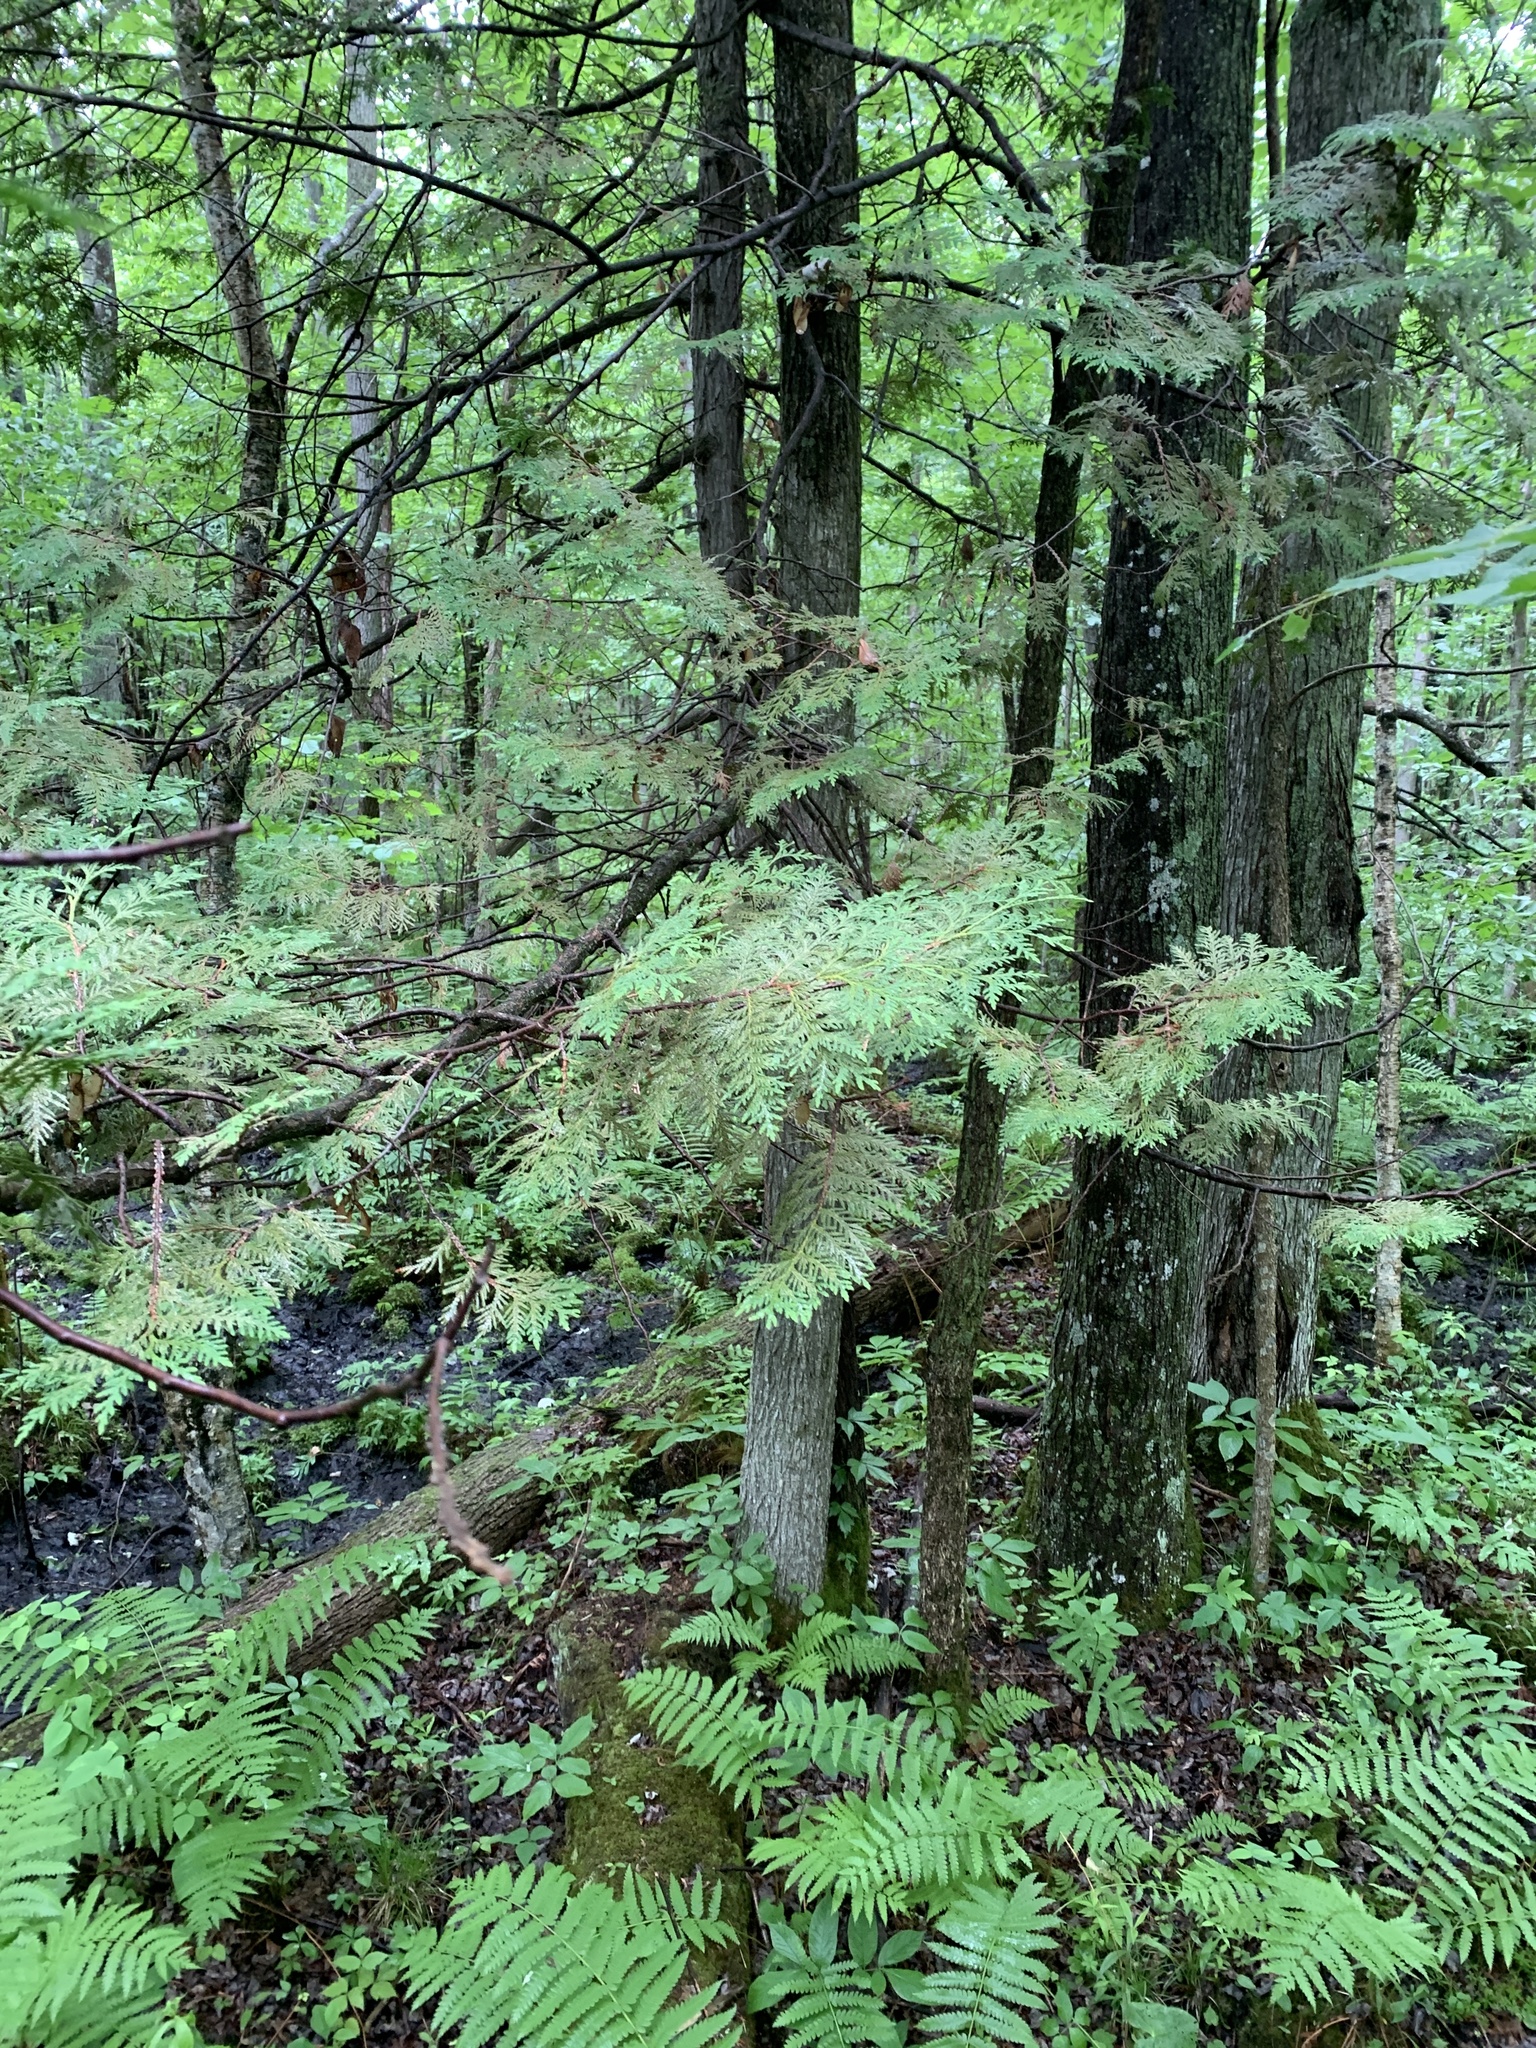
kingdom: Plantae
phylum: Tracheophyta
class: Pinopsida
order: Pinales
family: Cupressaceae
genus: Thuja
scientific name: Thuja occidentalis
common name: Northern white-cedar
